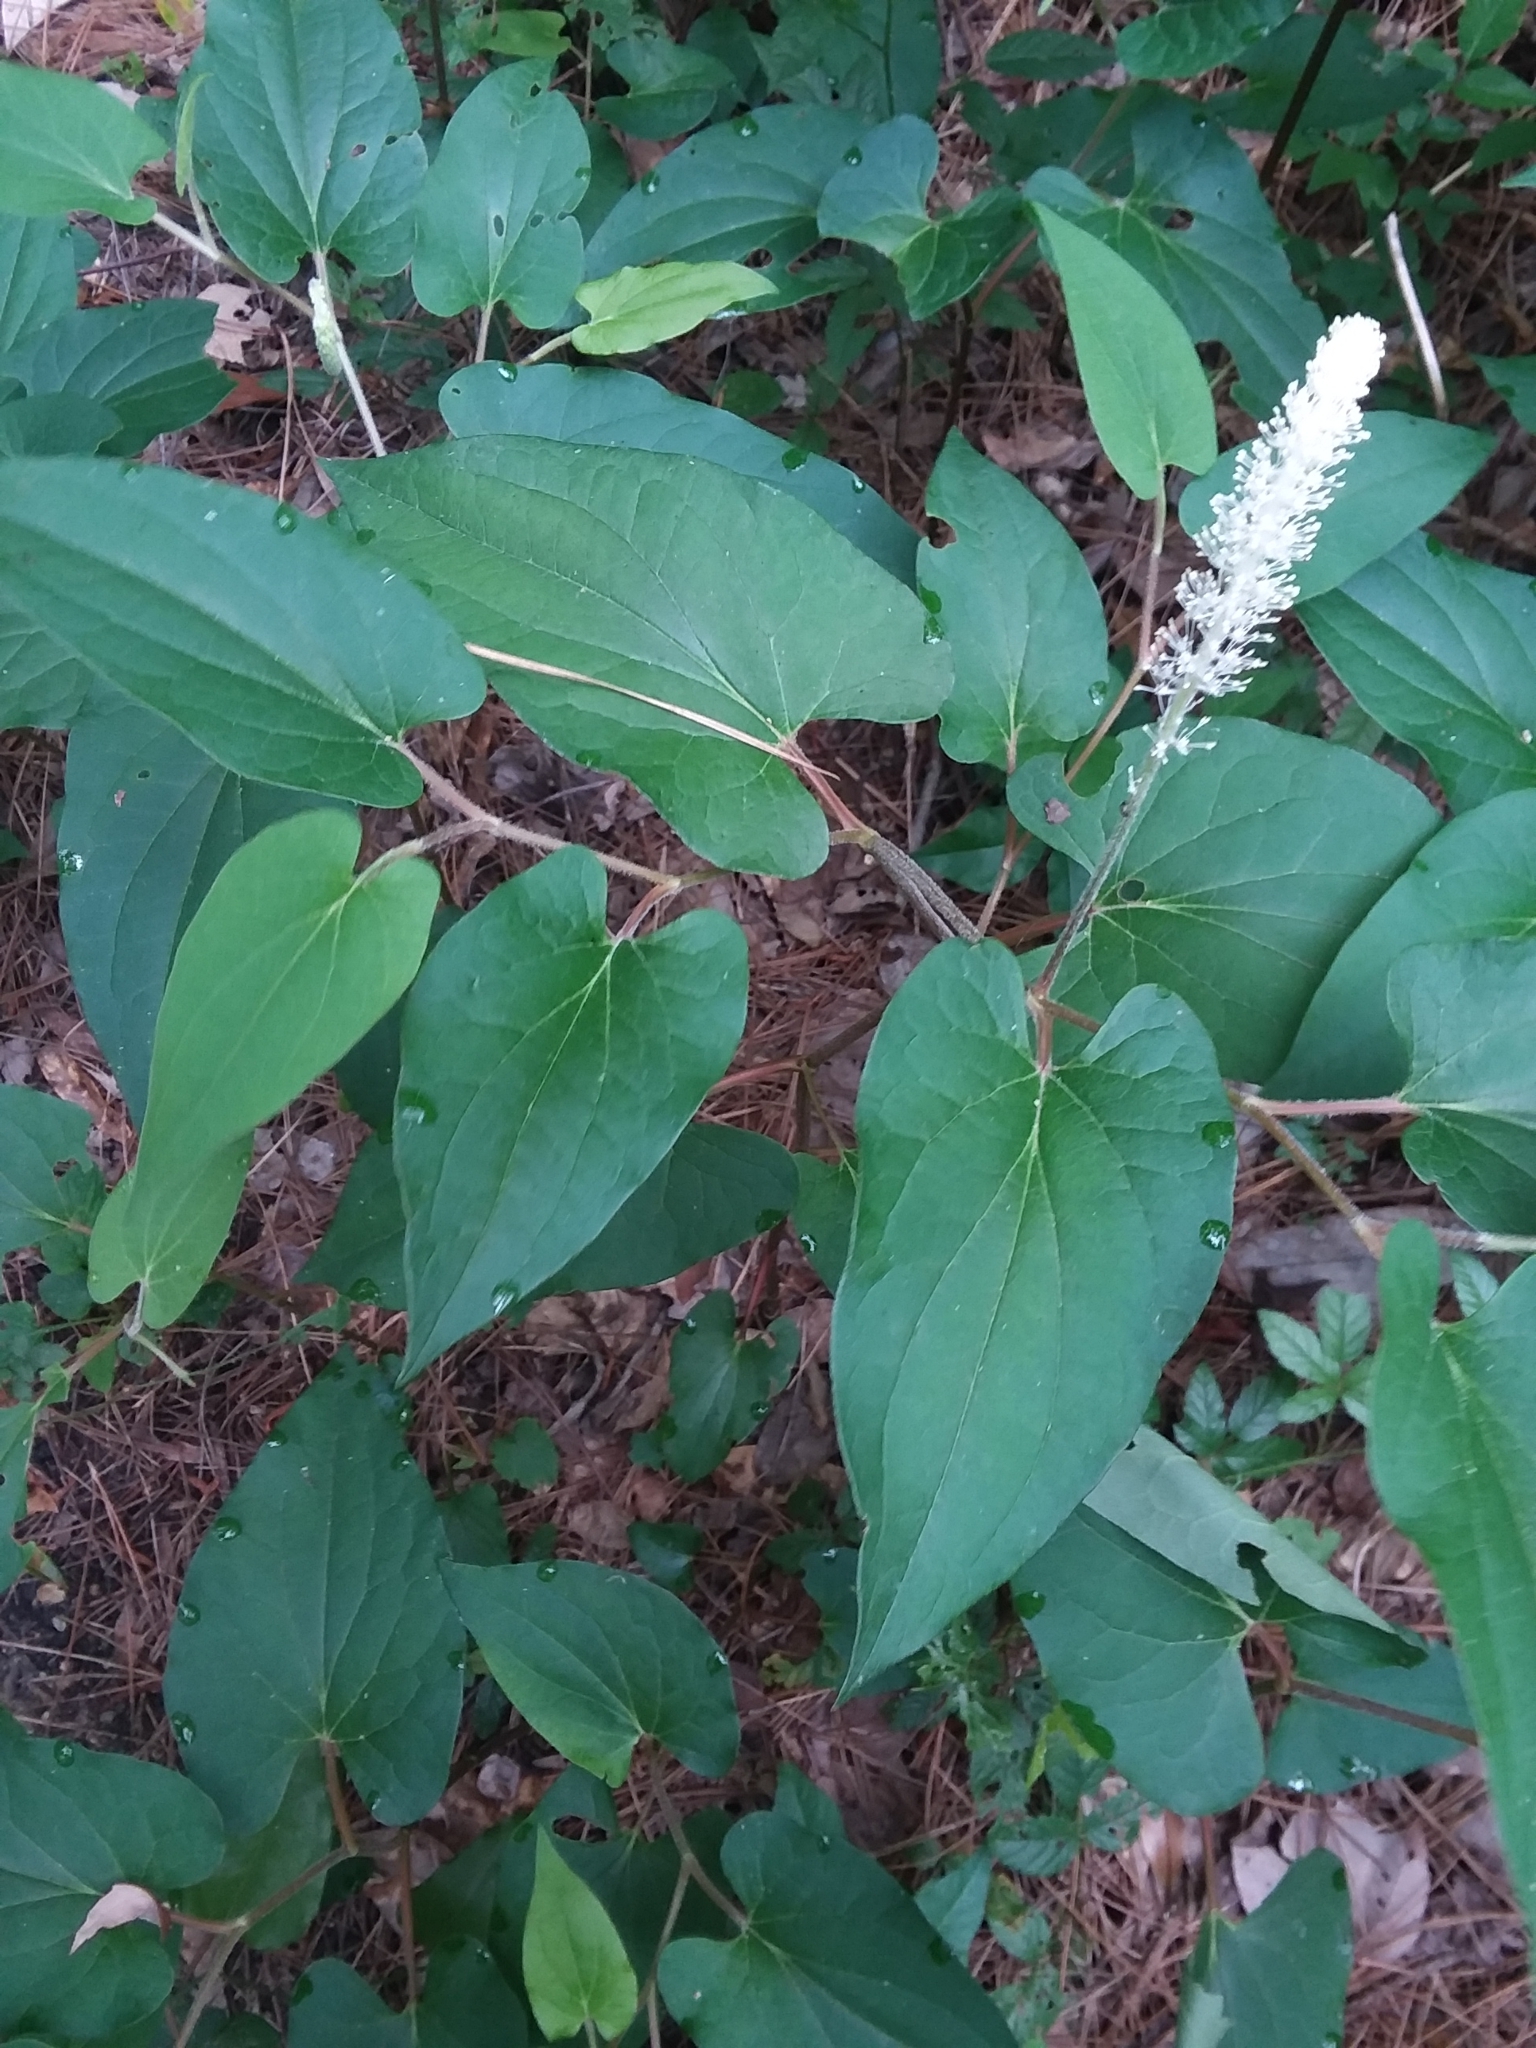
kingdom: Plantae
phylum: Tracheophyta
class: Magnoliopsida
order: Piperales
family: Saururaceae
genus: Saururus
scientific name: Saururus cernuus
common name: Lizard's-tail
